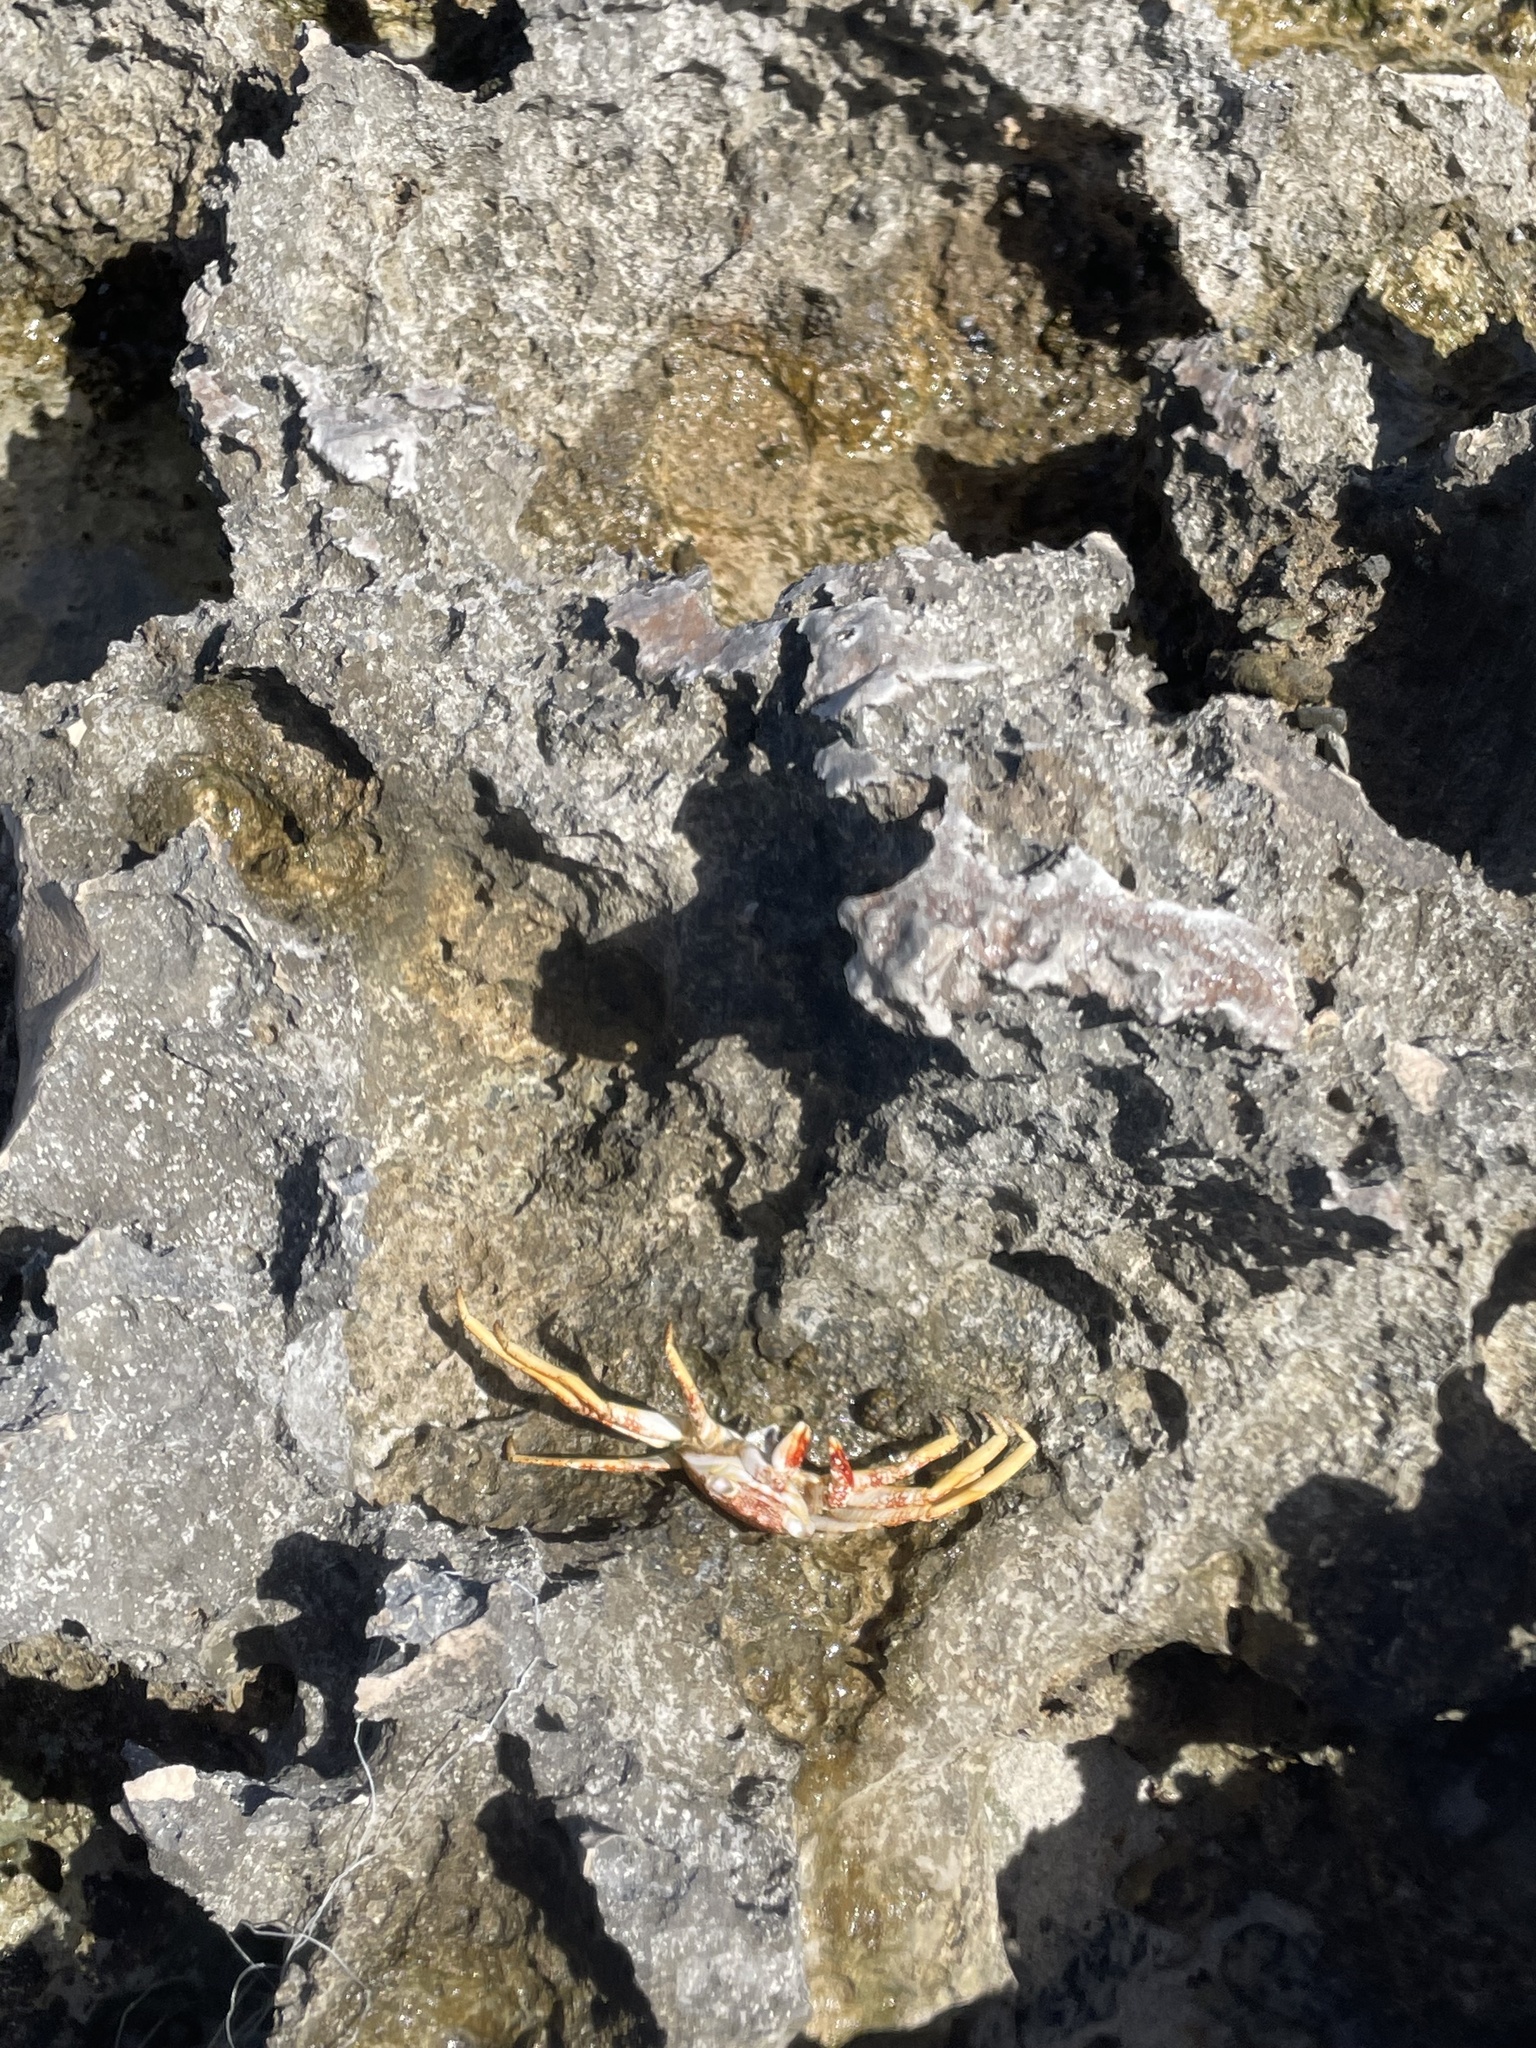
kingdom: Animalia
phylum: Arthropoda
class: Malacostraca
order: Decapoda
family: Grapsidae
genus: Grapsus
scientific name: Grapsus grapsus
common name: Sally lightfoot
